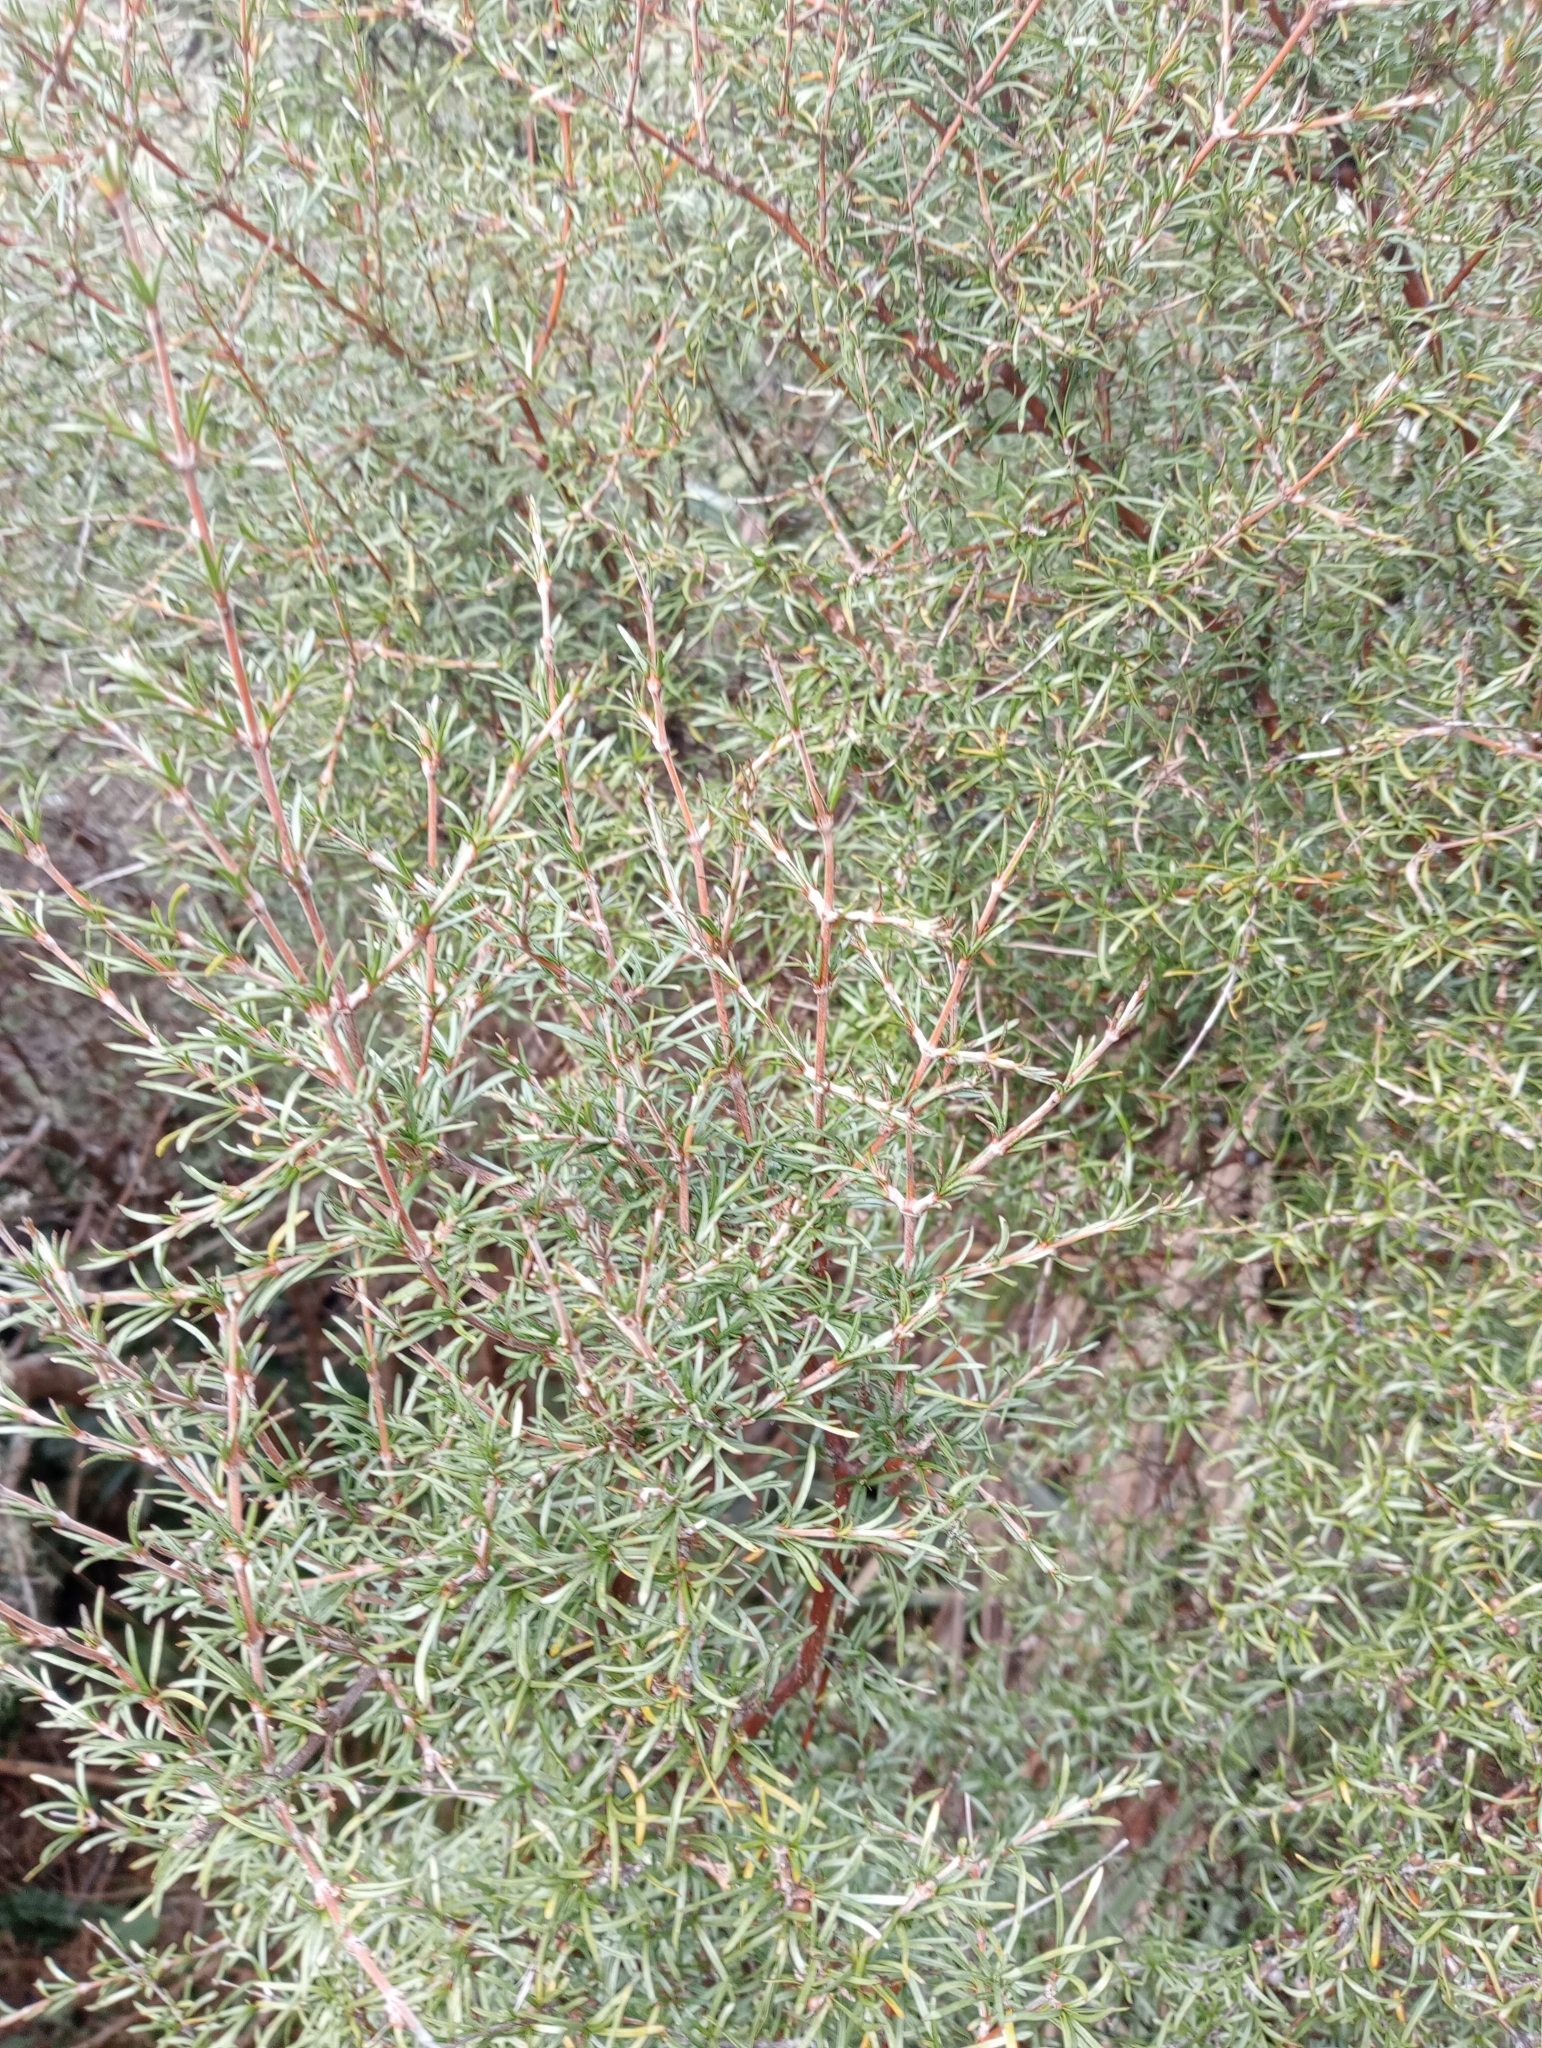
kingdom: Plantae
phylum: Tracheophyta
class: Magnoliopsida
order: Gentianales
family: Rubiaceae
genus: Coprosma
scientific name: Coprosma rugosa
